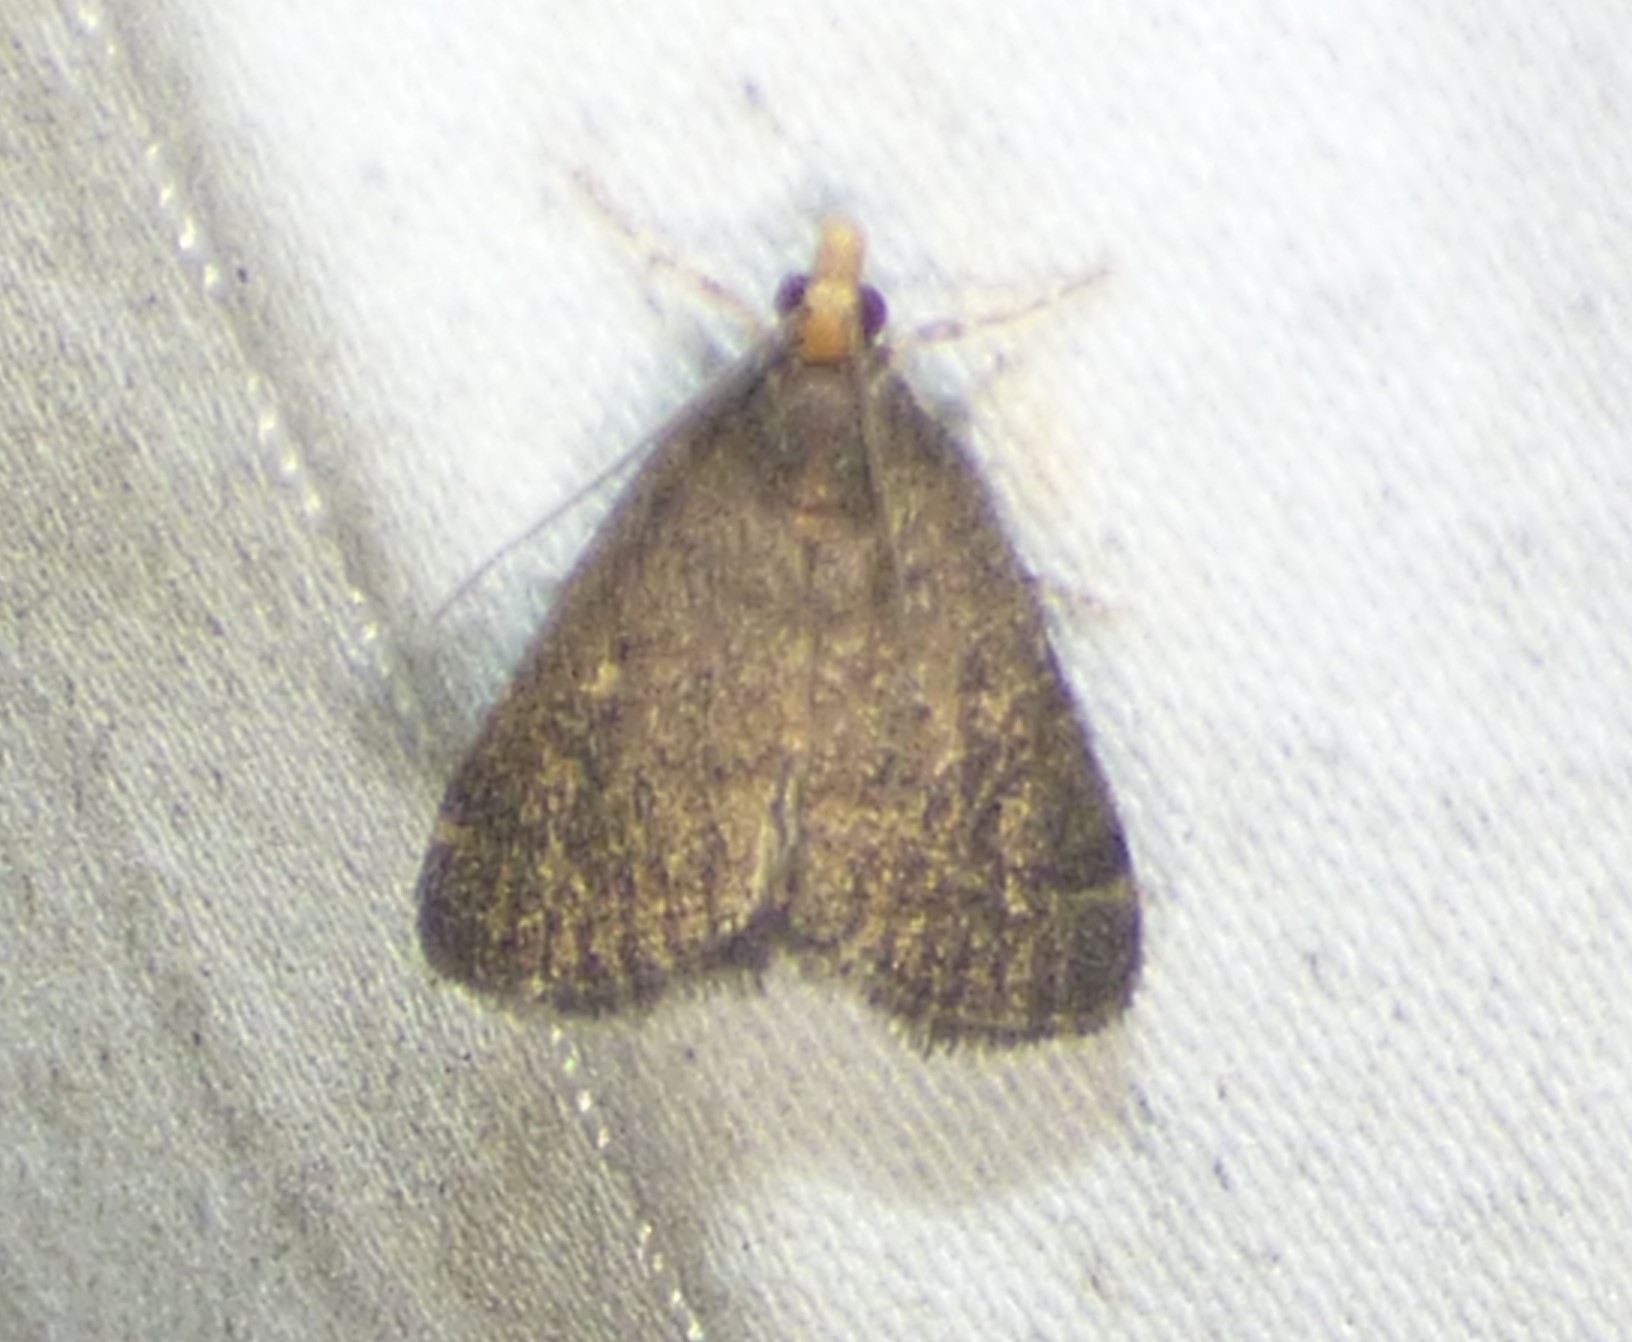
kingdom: Animalia
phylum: Arthropoda
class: Insecta
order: Lepidoptera
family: Crambidae
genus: Pyrausta
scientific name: Pyrausta merrickalis
